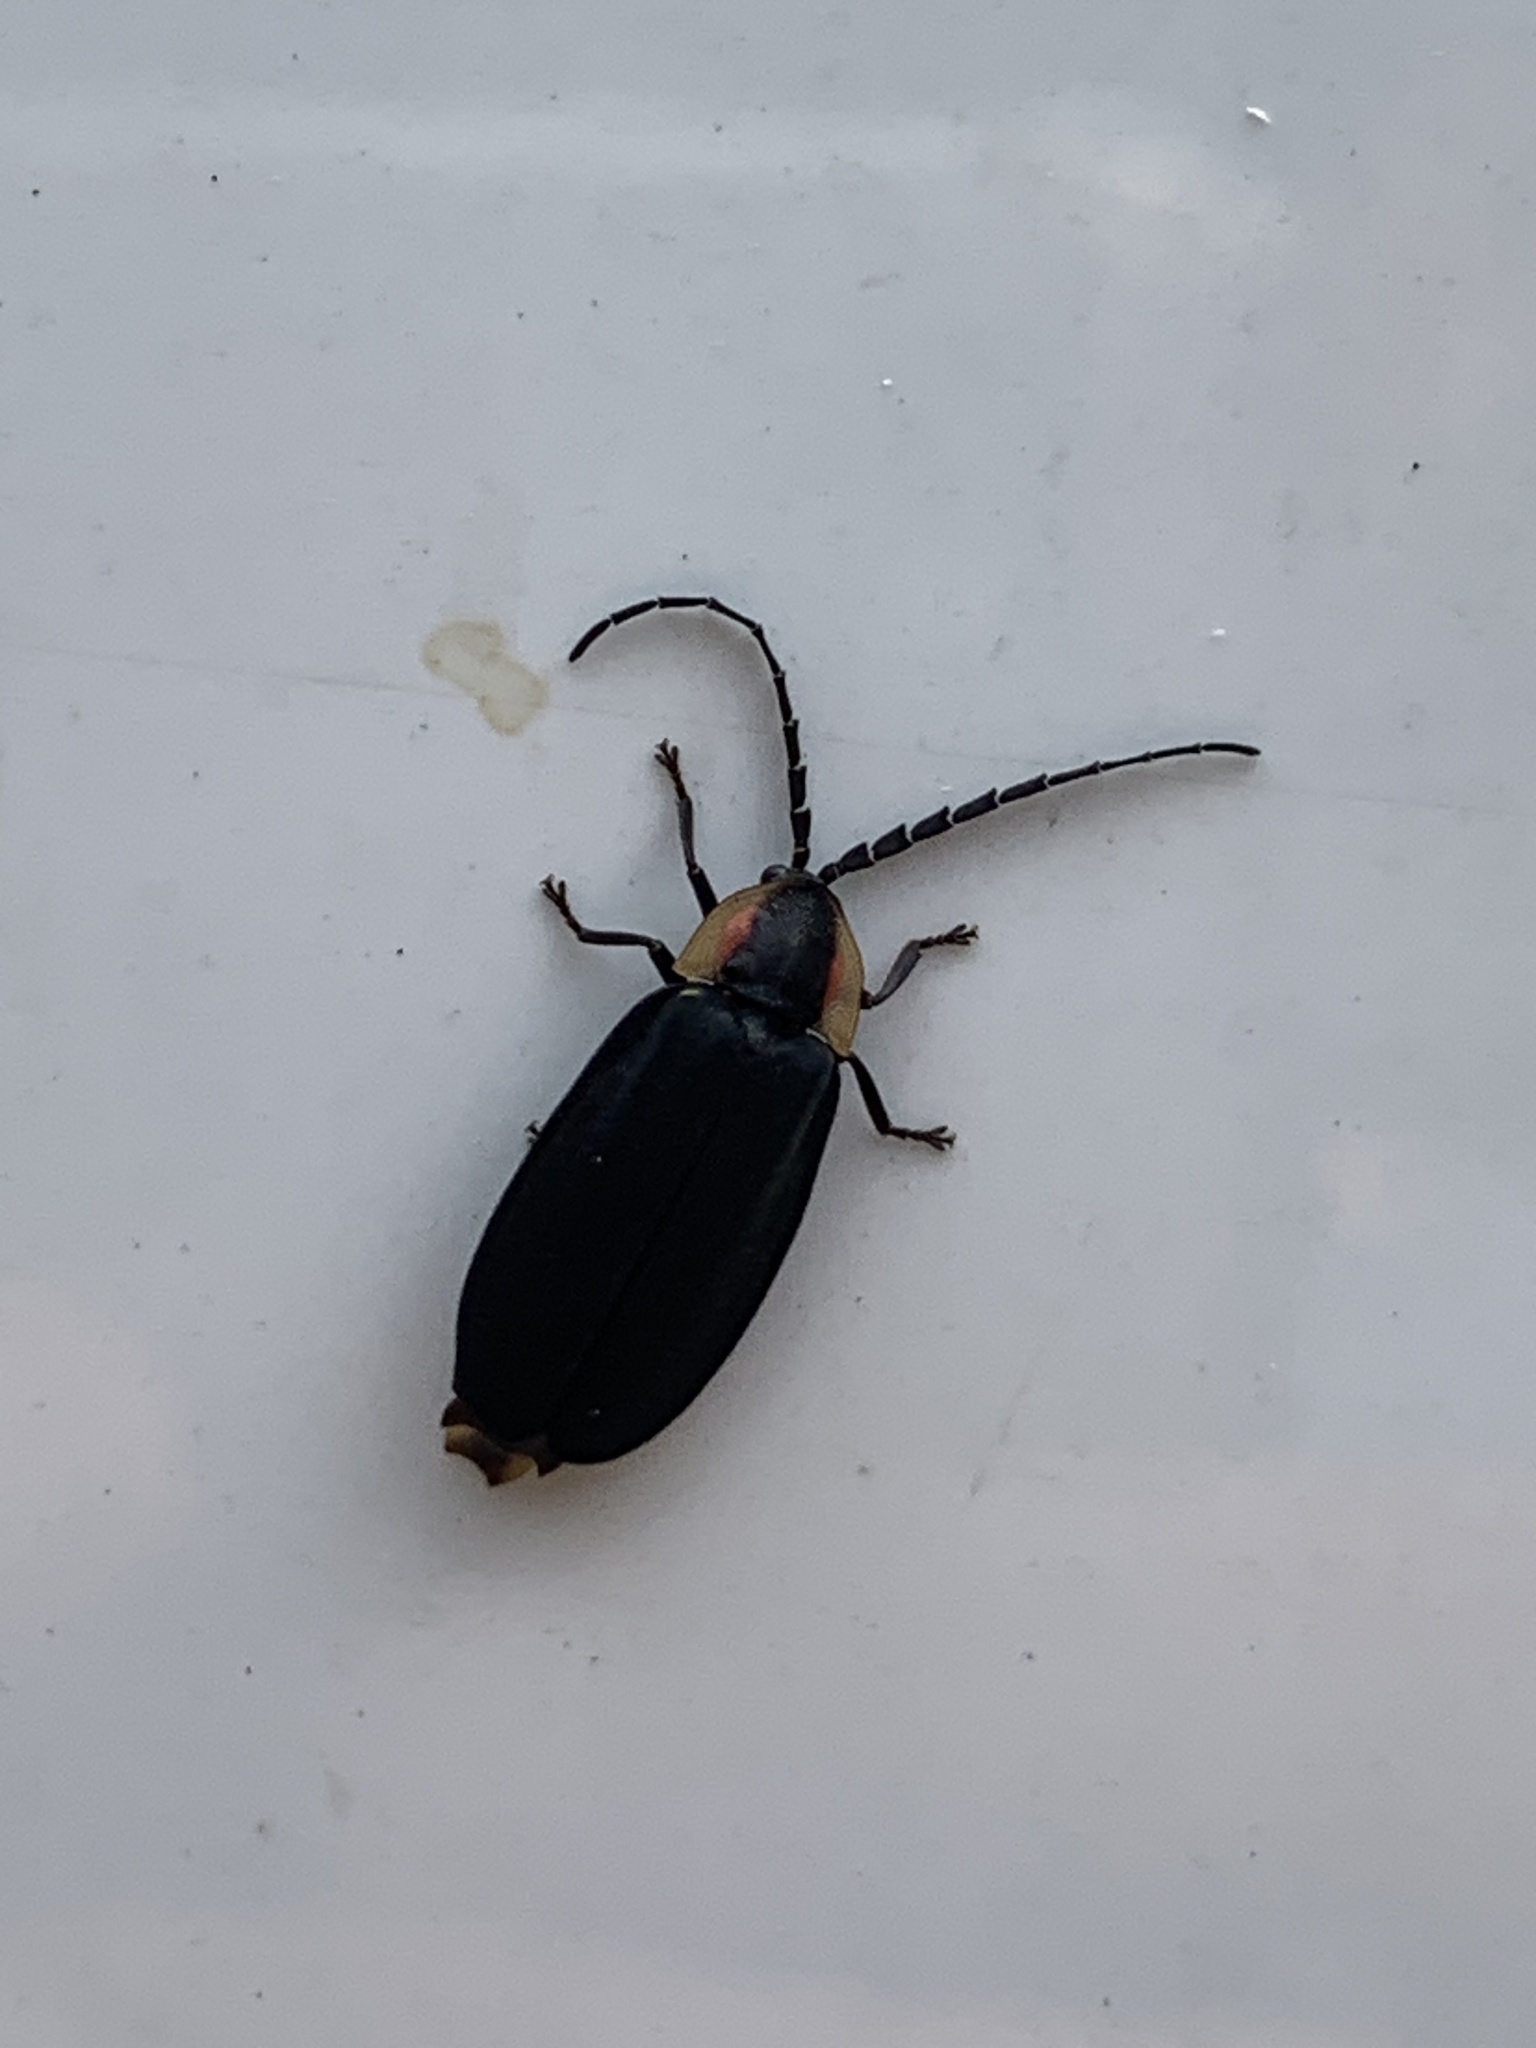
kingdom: Animalia
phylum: Arthropoda
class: Insecta
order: Coleoptera
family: Lampyridae
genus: Lucidota
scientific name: Lucidota atra
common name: Black firefly
